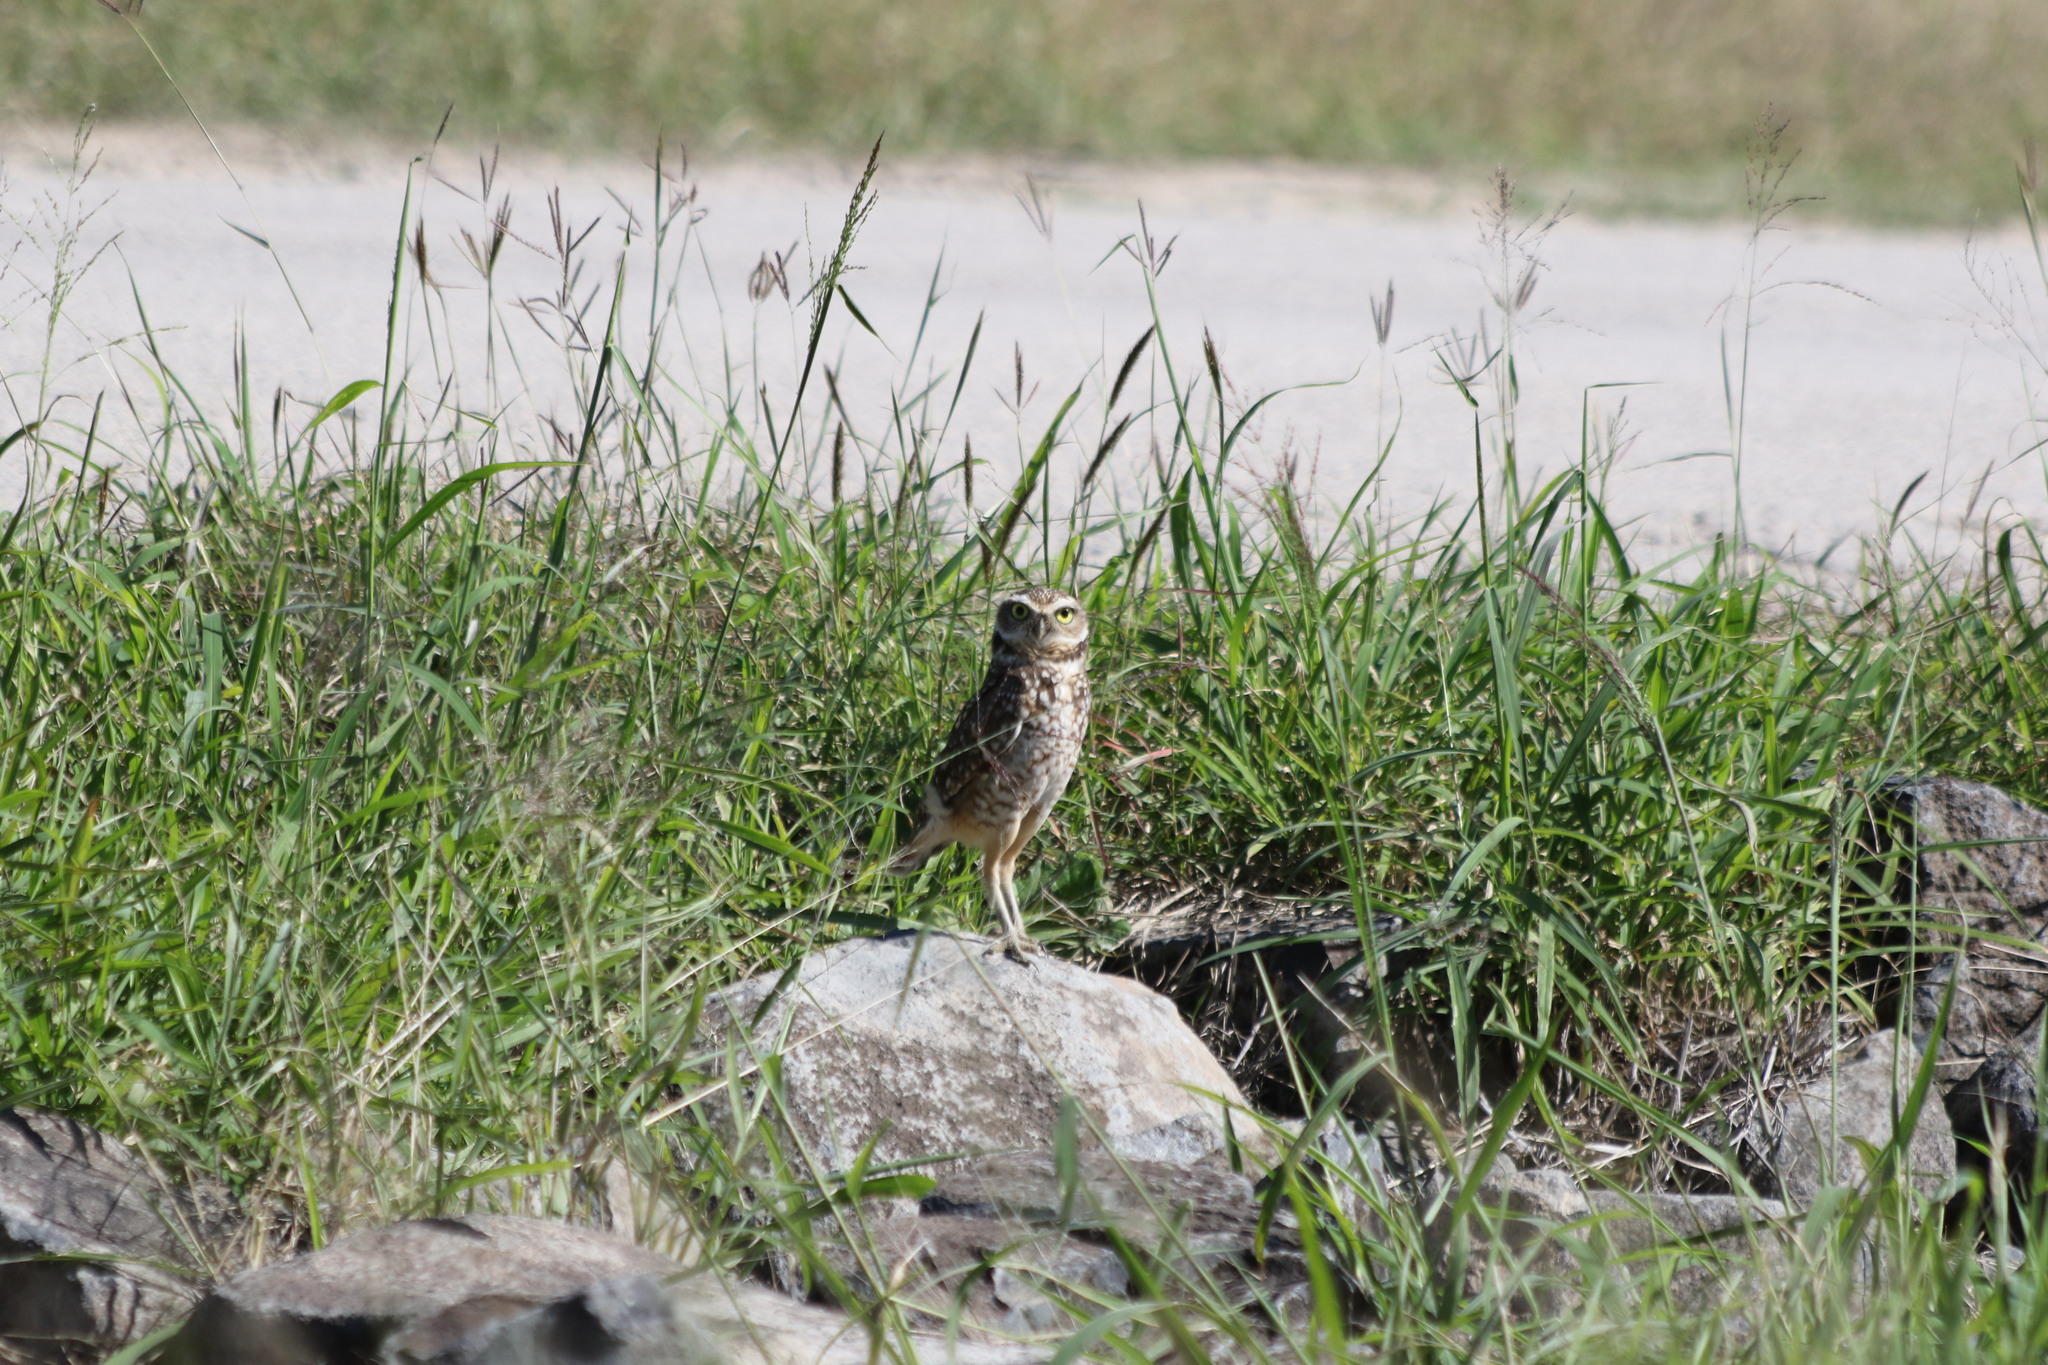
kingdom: Animalia
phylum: Chordata
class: Aves
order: Strigiformes
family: Strigidae
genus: Athene
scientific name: Athene cunicularia
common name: Burrowing owl
